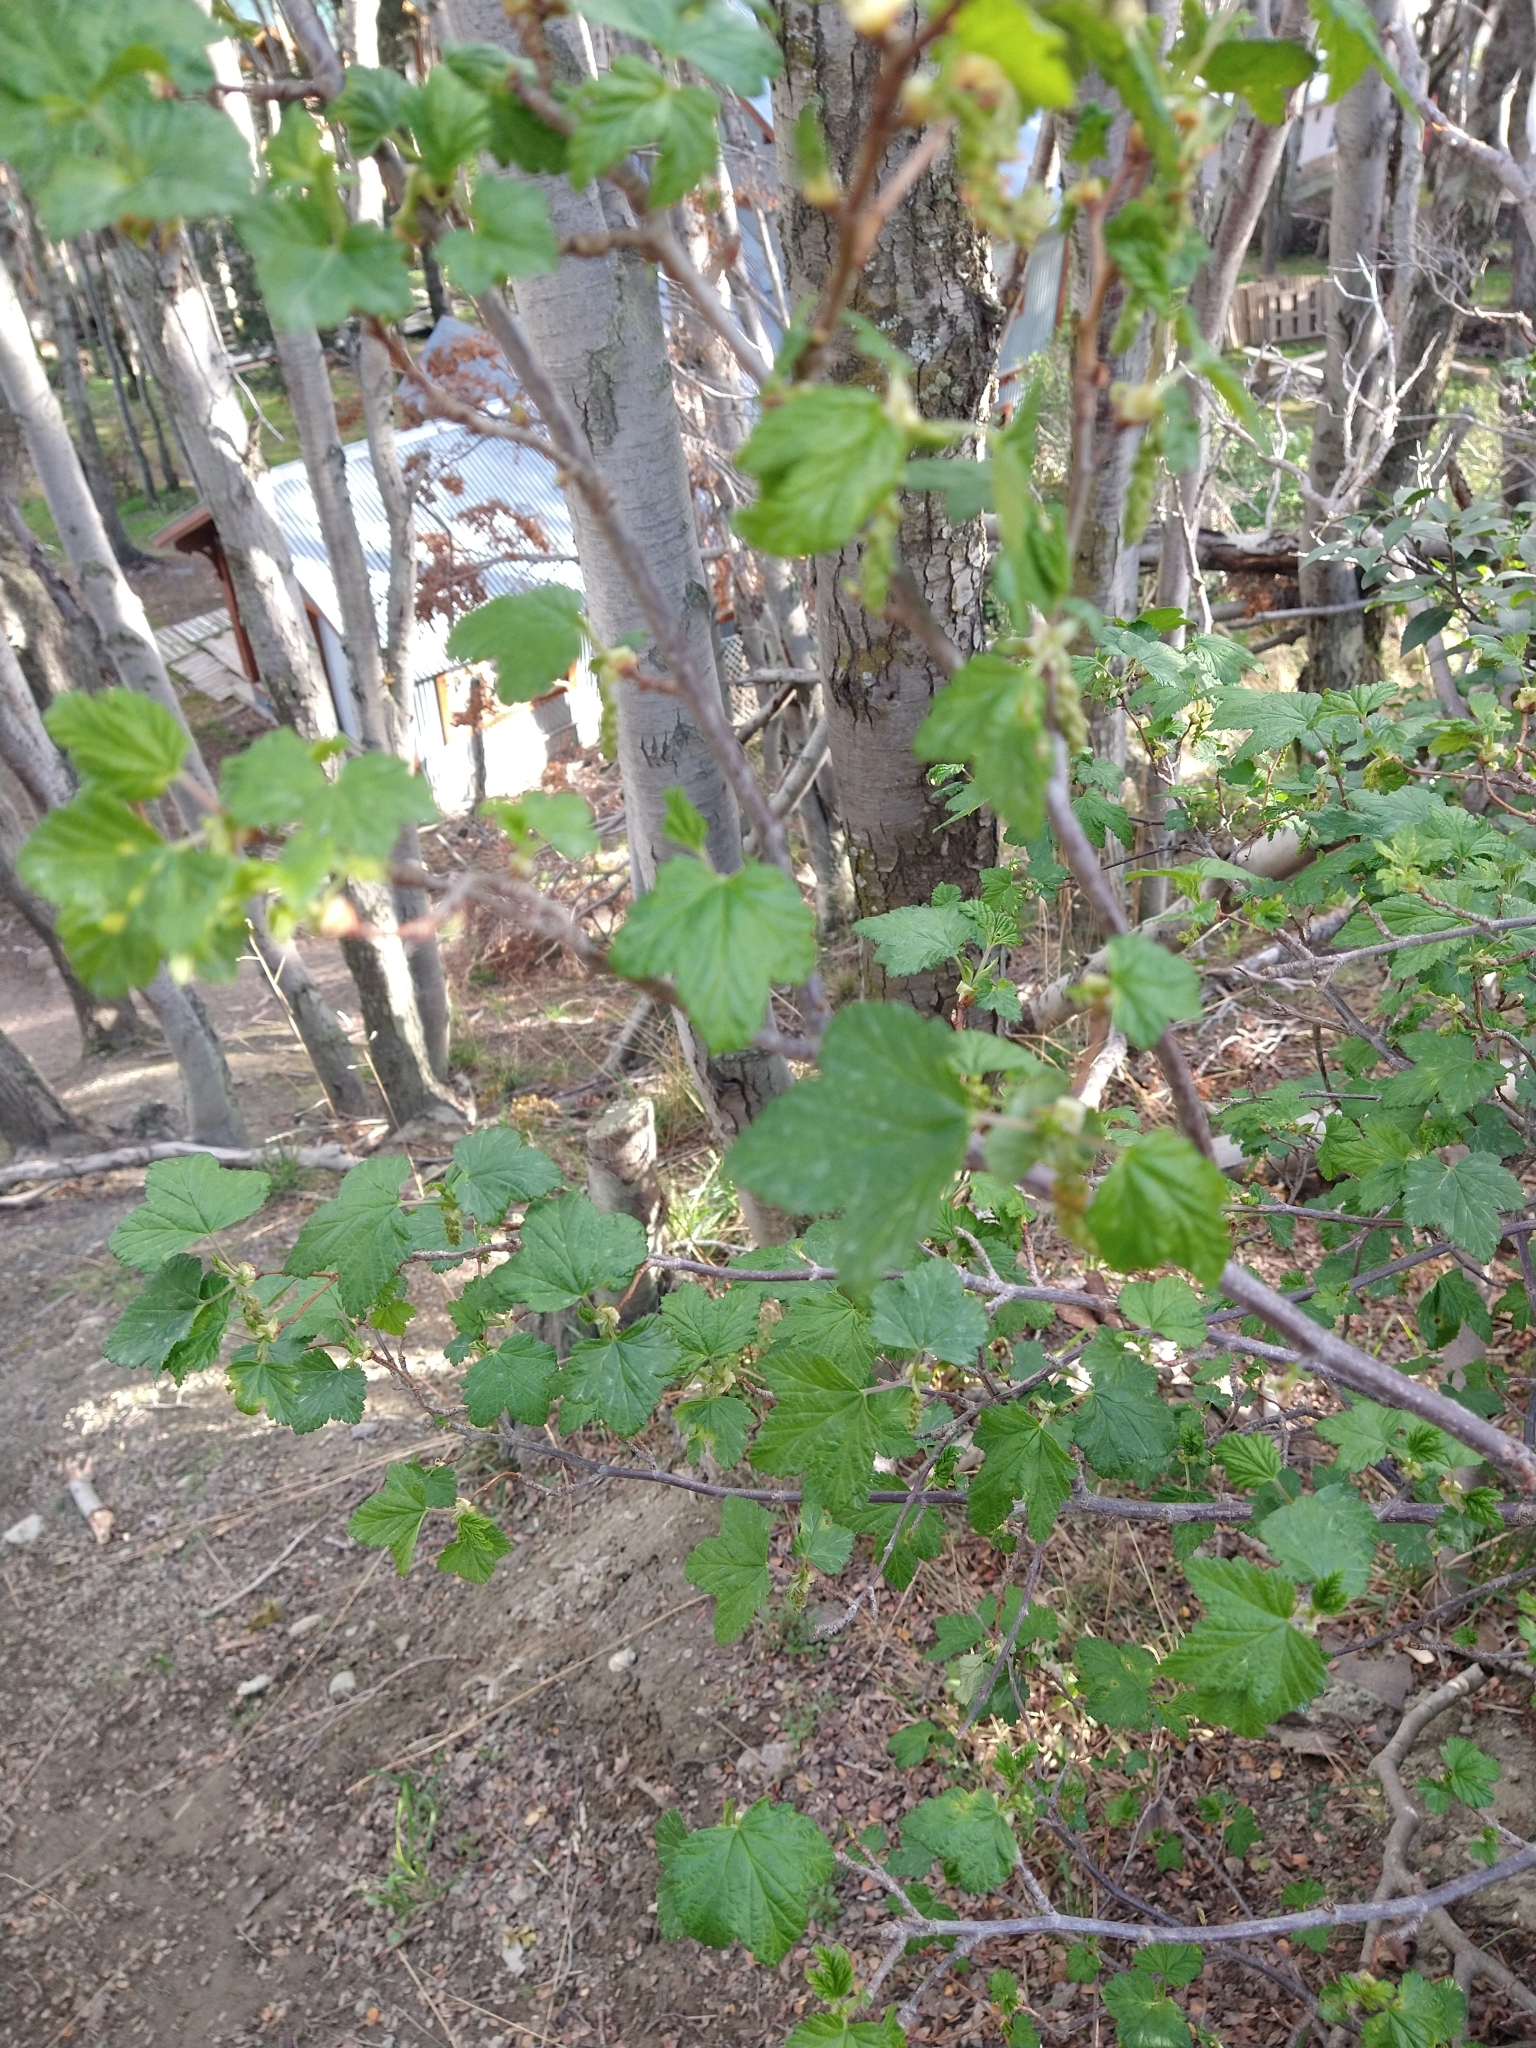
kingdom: Plantae
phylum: Tracheophyta
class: Magnoliopsida
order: Saxifragales
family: Grossulariaceae
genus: Ribes
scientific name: Ribes magellanicum
